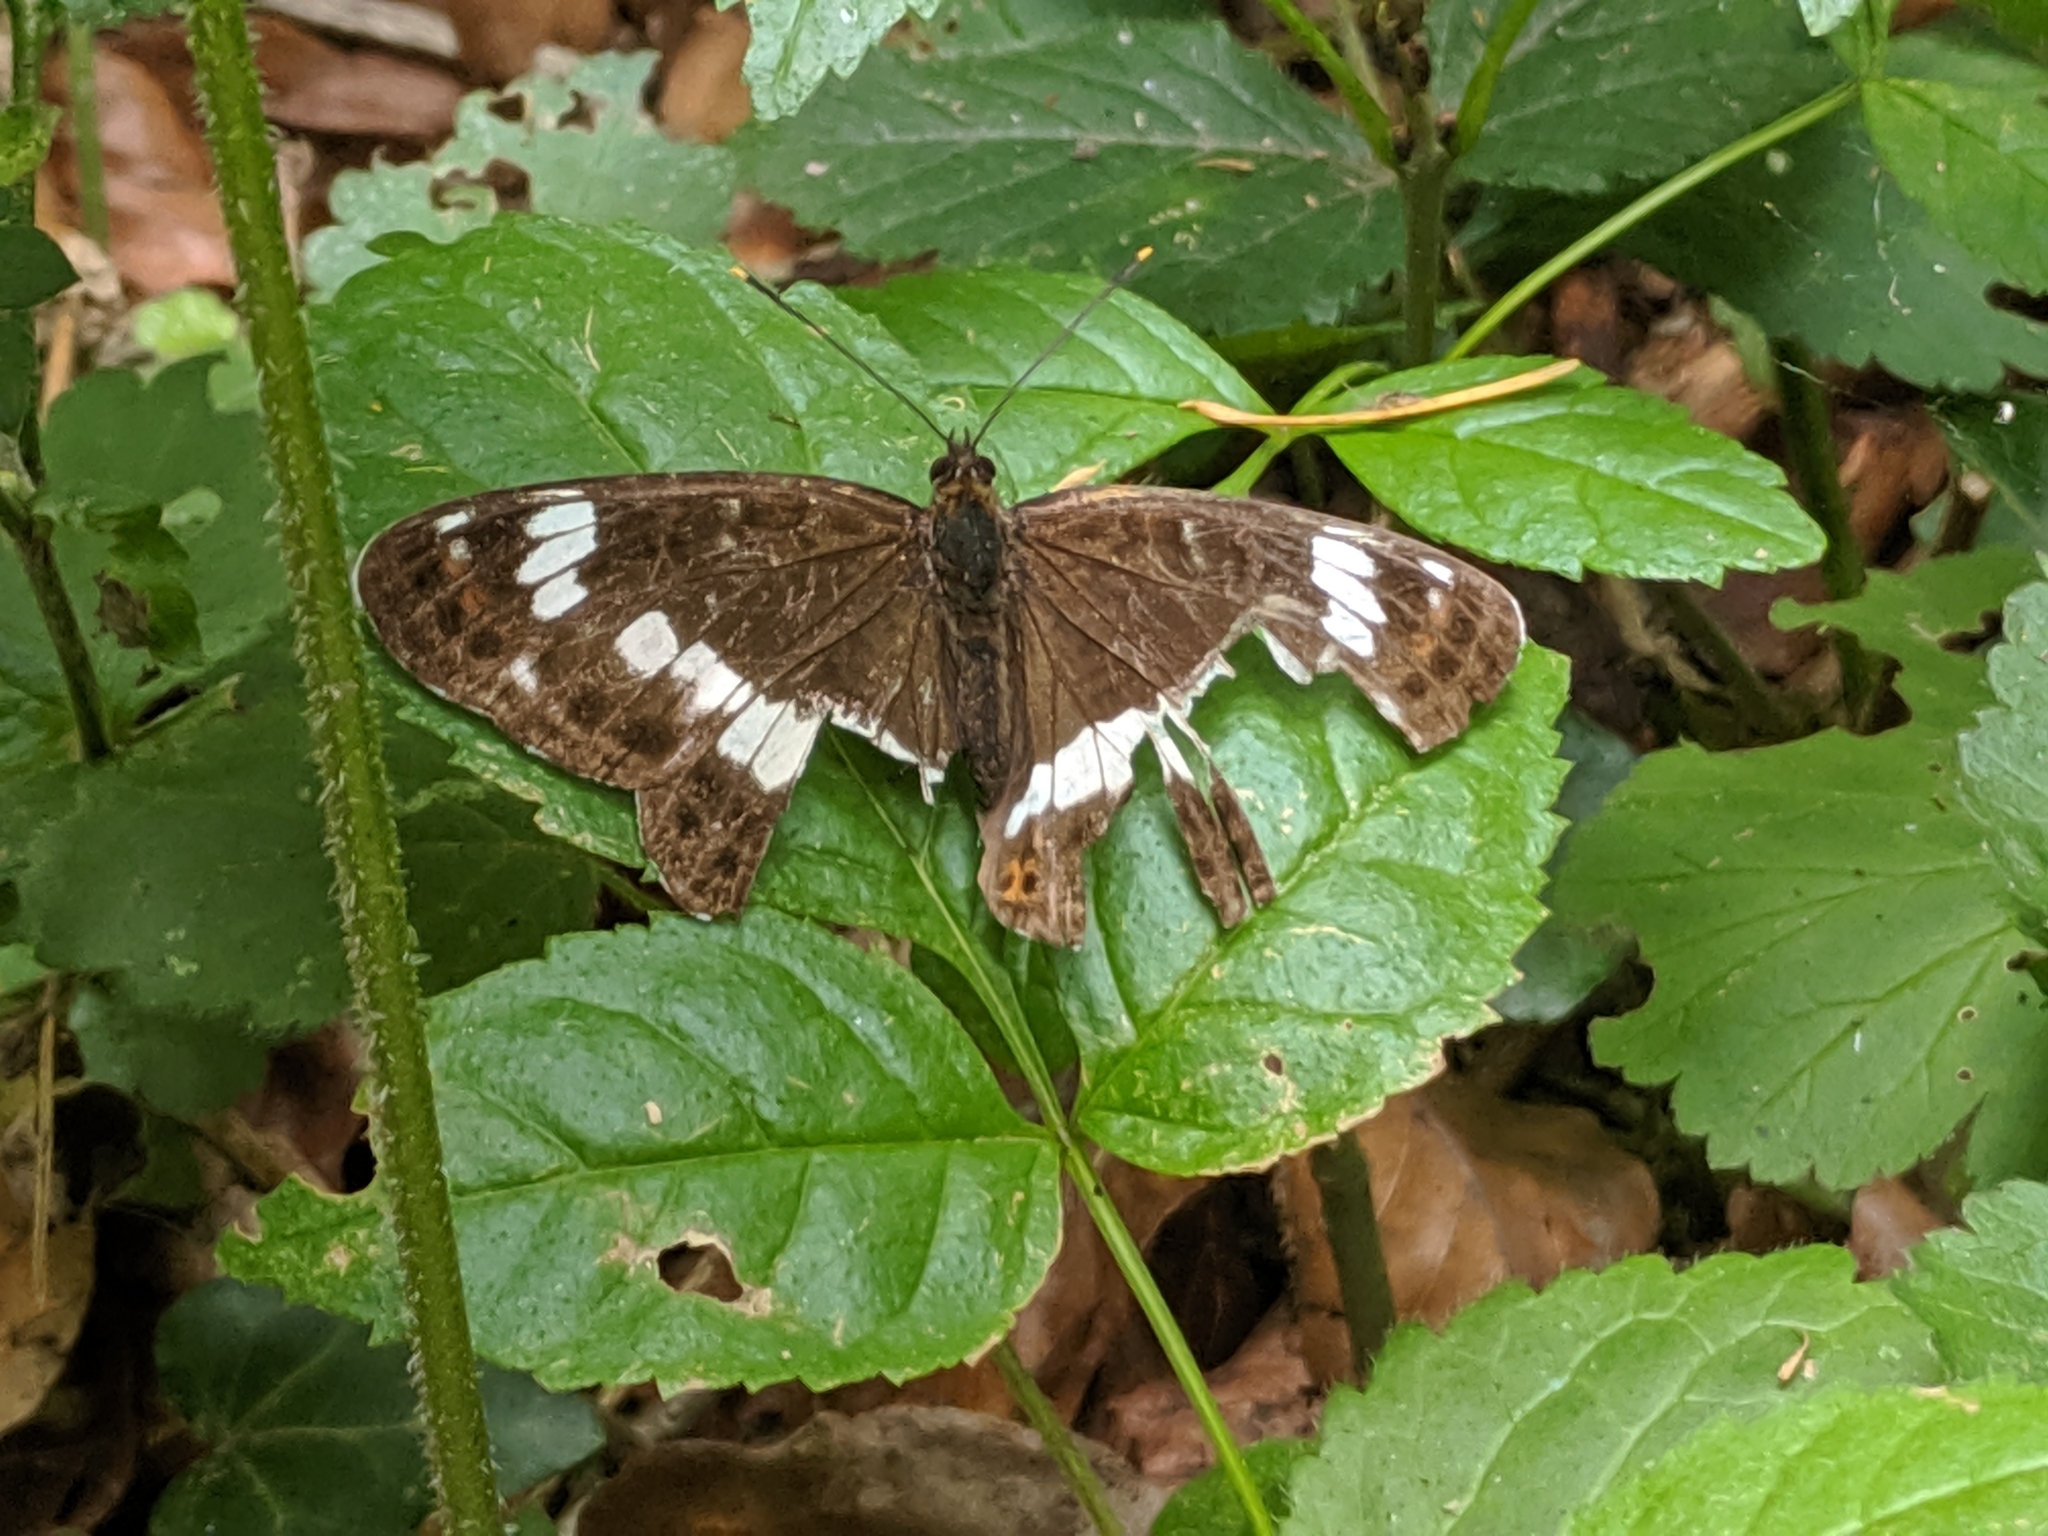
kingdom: Animalia
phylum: Arthropoda
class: Insecta
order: Lepidoptera
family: Nymphalidae
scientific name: Nymphalidae
